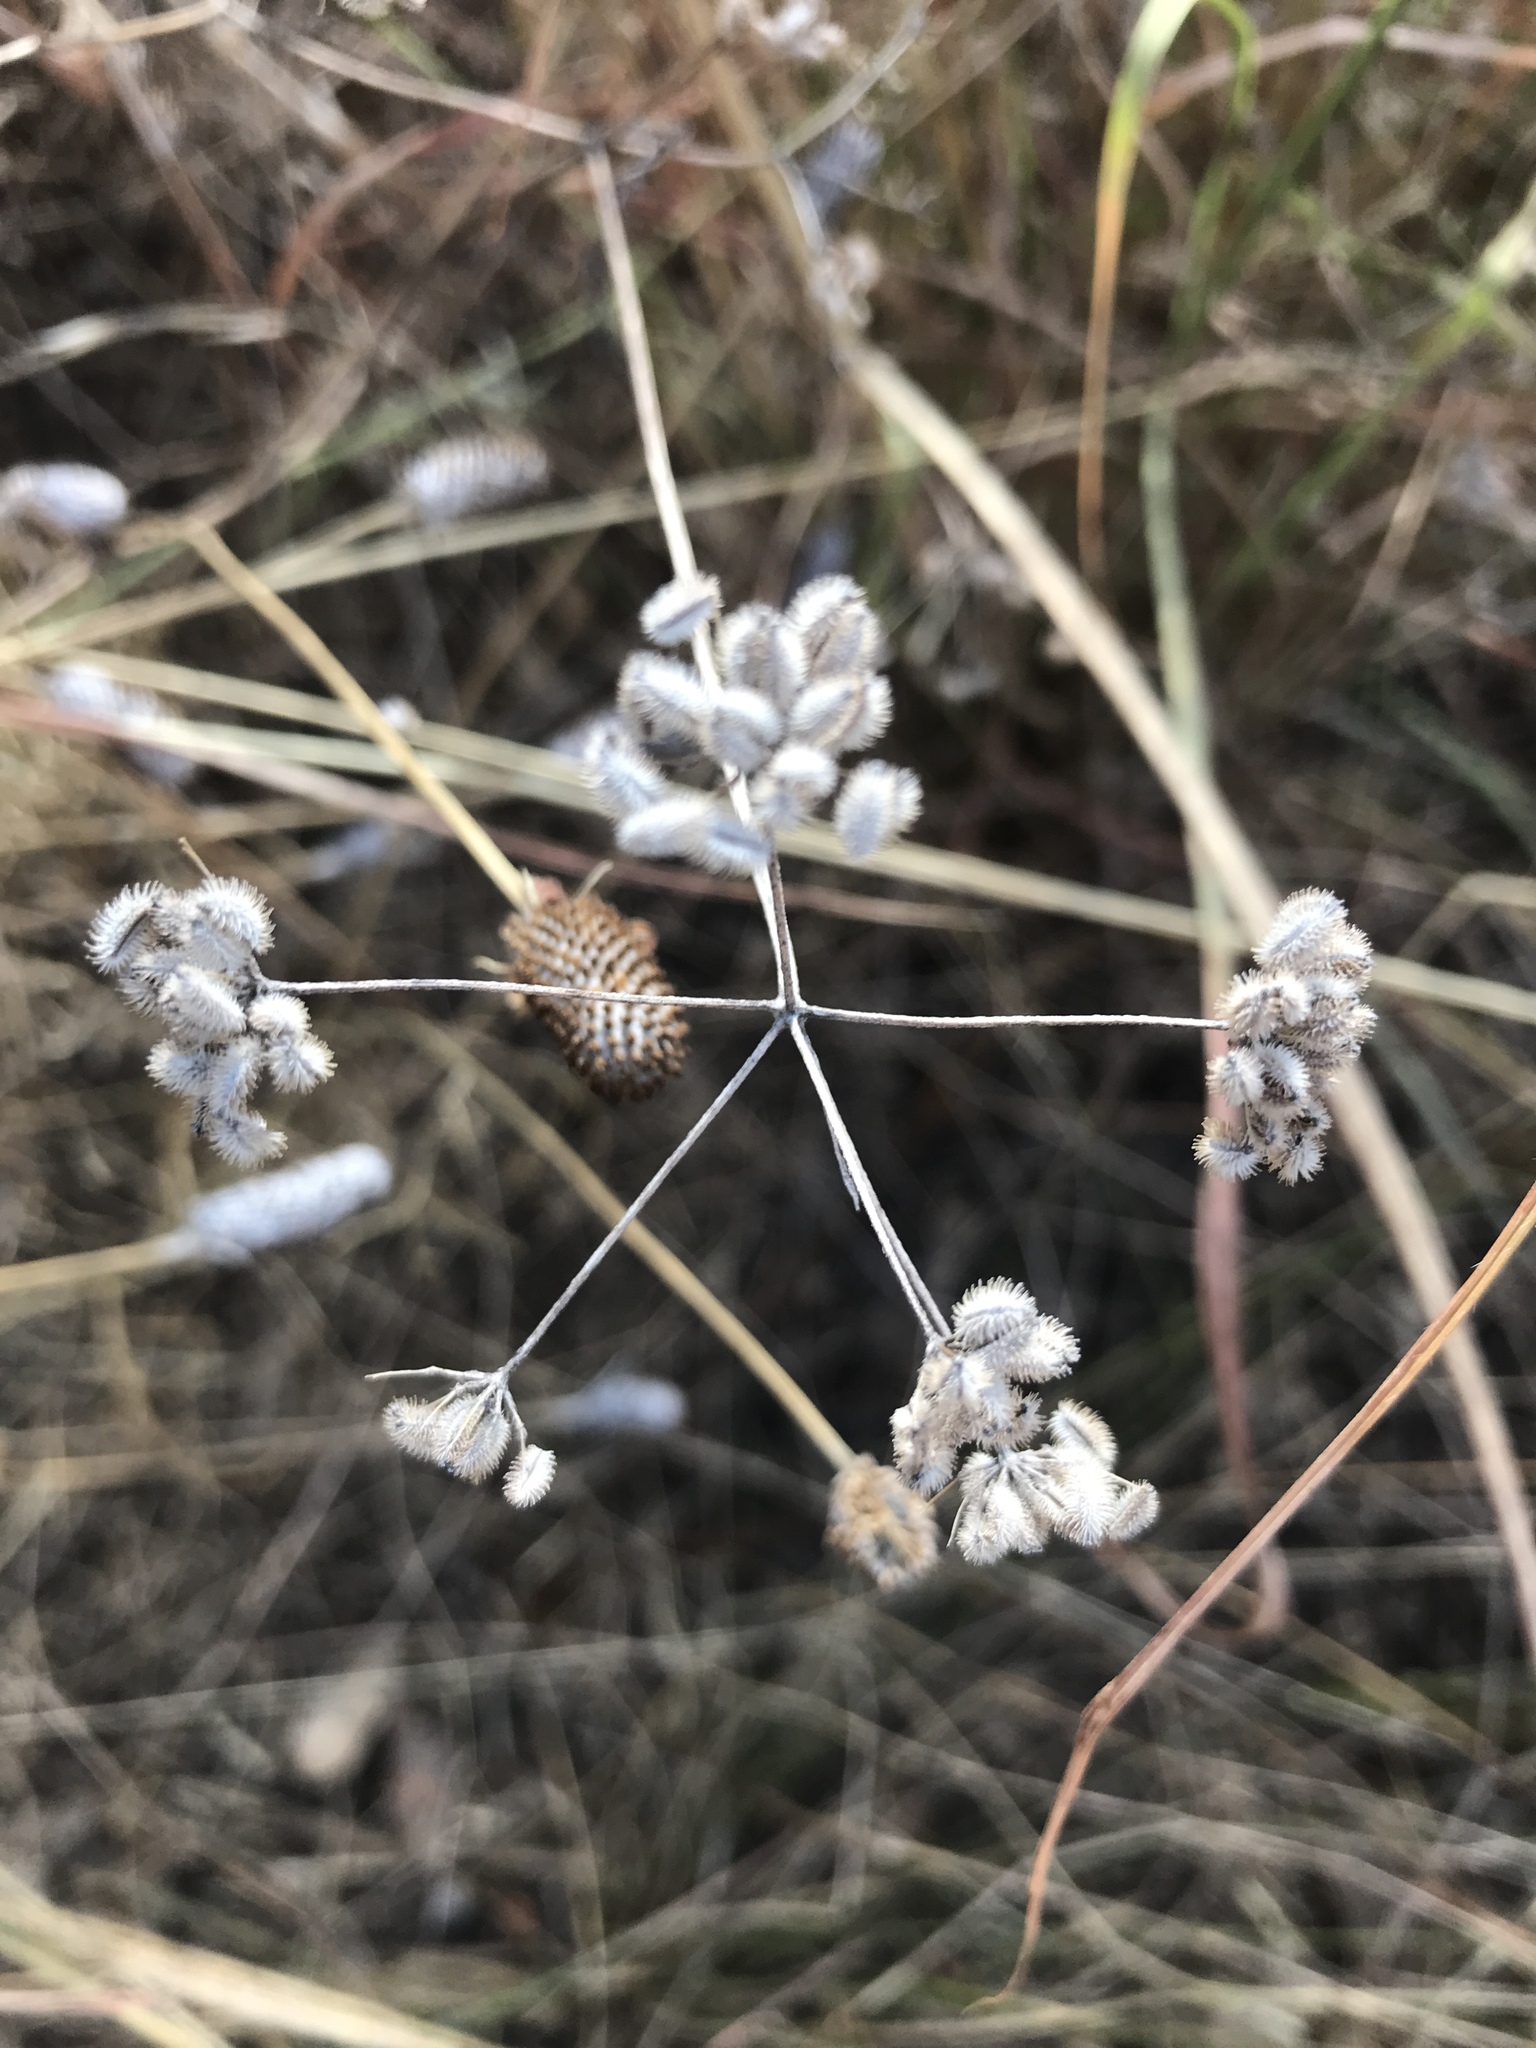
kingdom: Plantae
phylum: Tracheophyta
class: Magnoliopsida
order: Apiales
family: Apiaceae
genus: Torilis
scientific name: Torilis arvensis
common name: Spreading hedge-parsley
